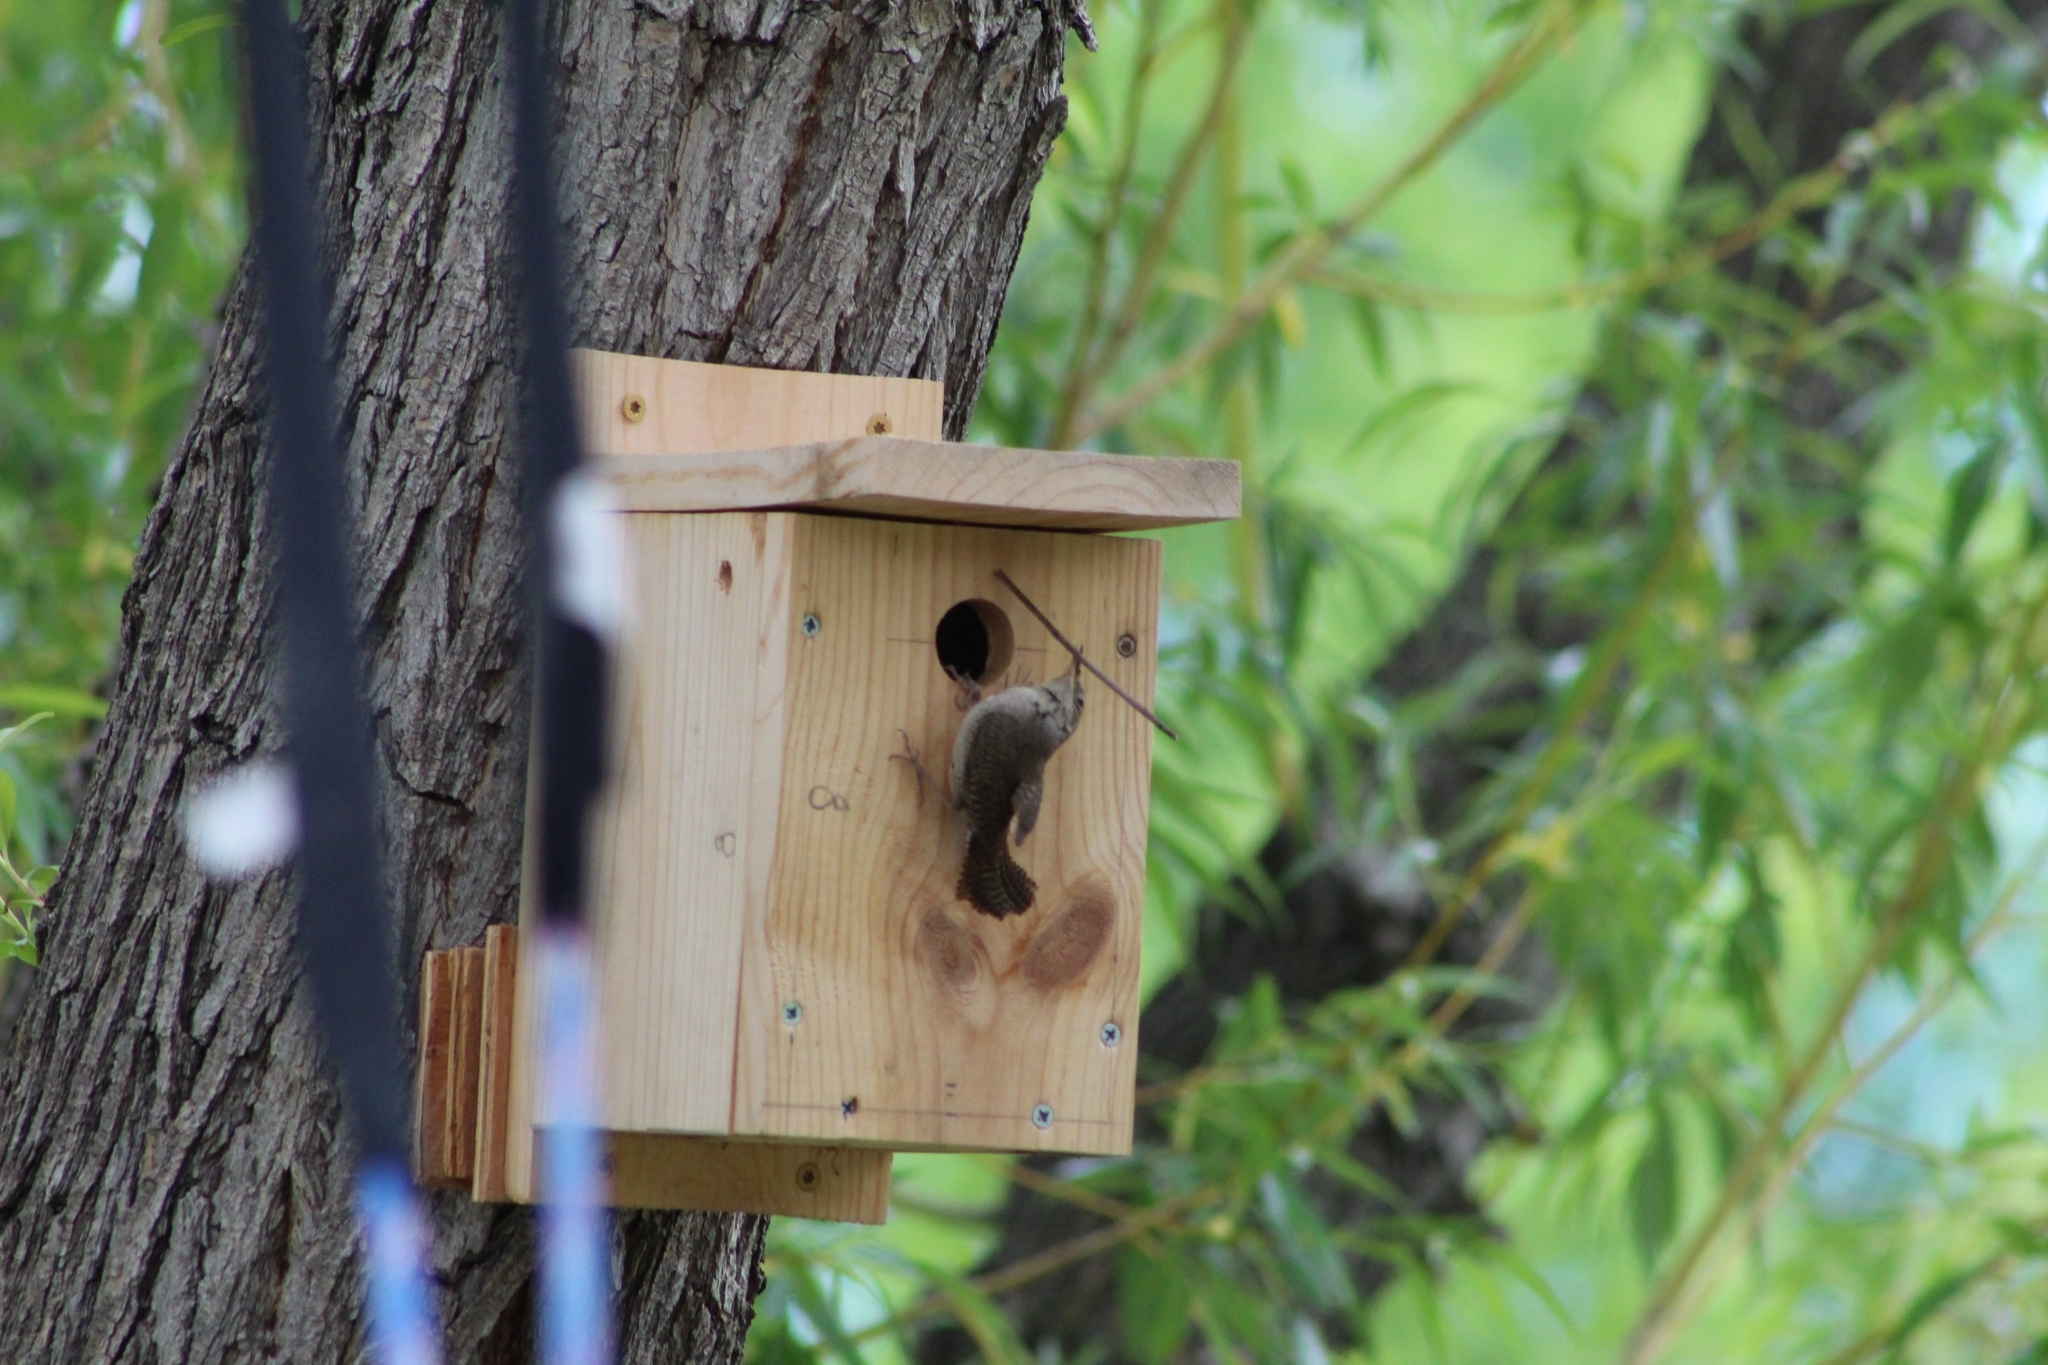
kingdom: Animalia
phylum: Chordata
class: Aves
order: Passeriformes
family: Troglodytidae
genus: Troglodytes
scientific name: Troglodytes aedon
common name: House wren
